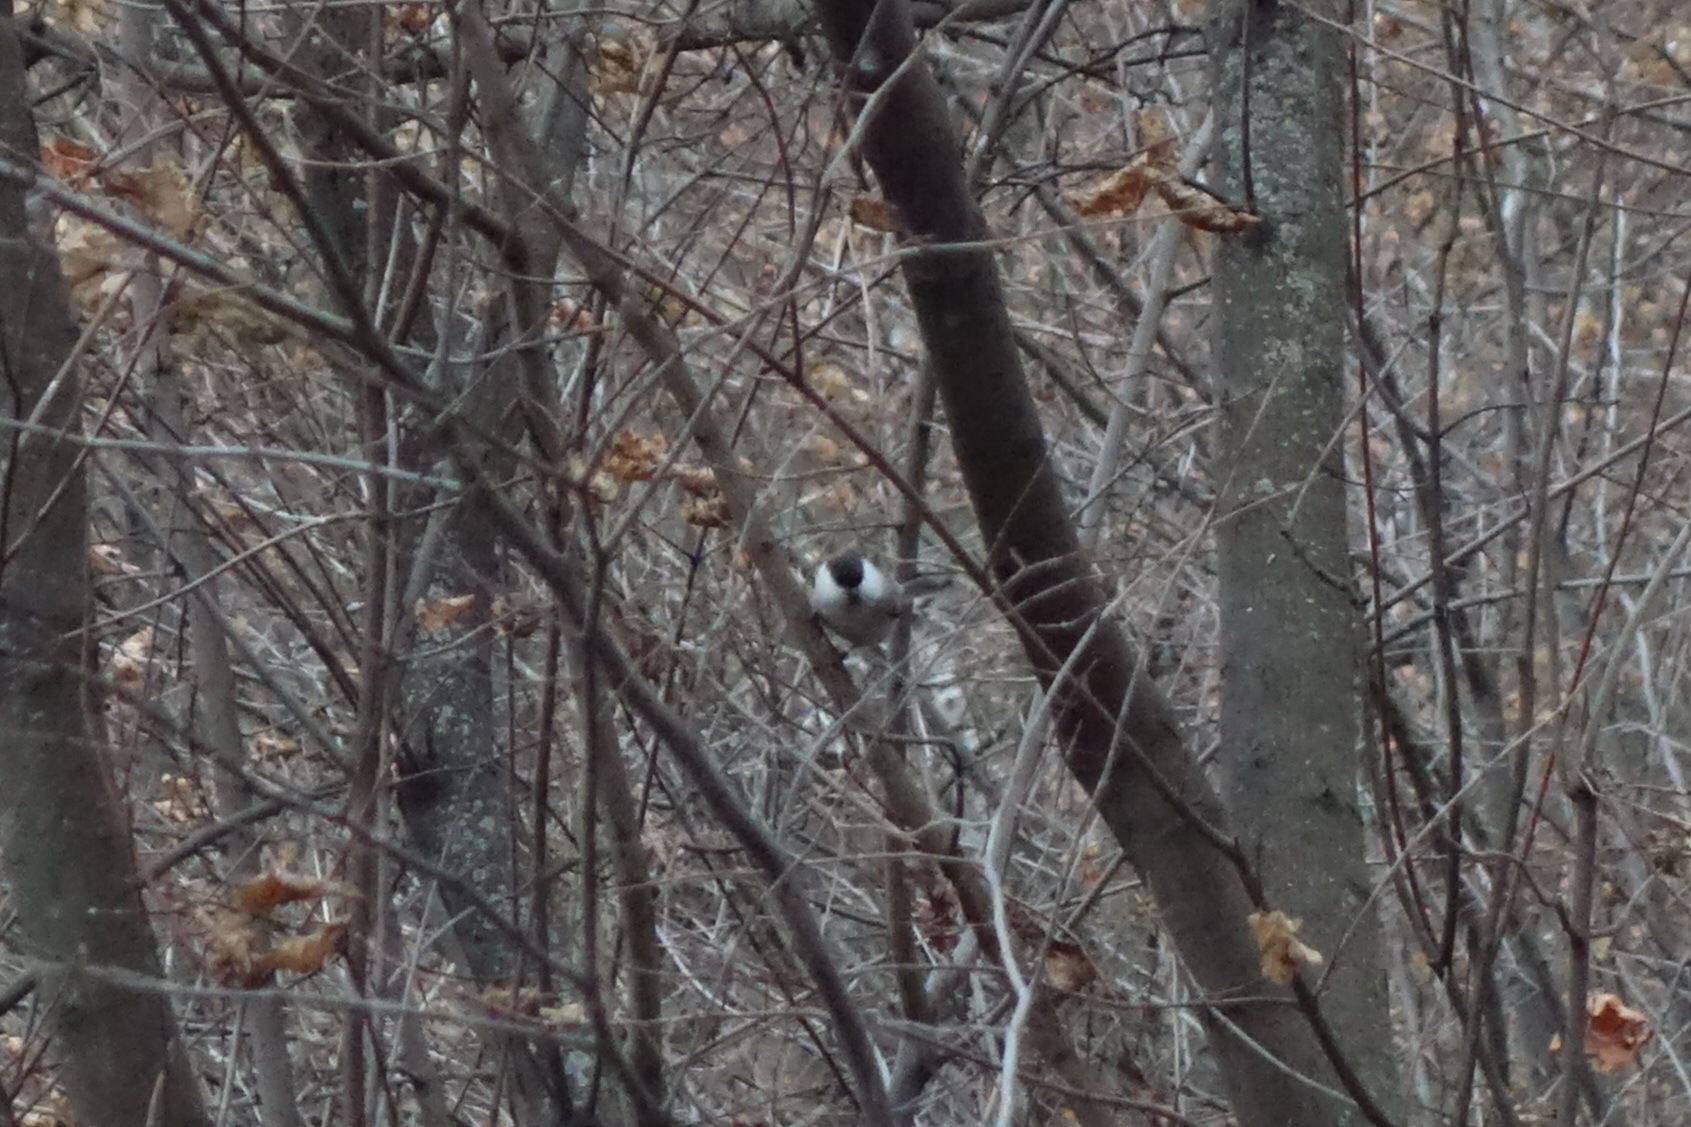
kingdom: Animalia
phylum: Chordata
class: Aves
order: Passeriformes
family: Paridae
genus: Poecile
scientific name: Poecile montanus
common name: Willow tit
